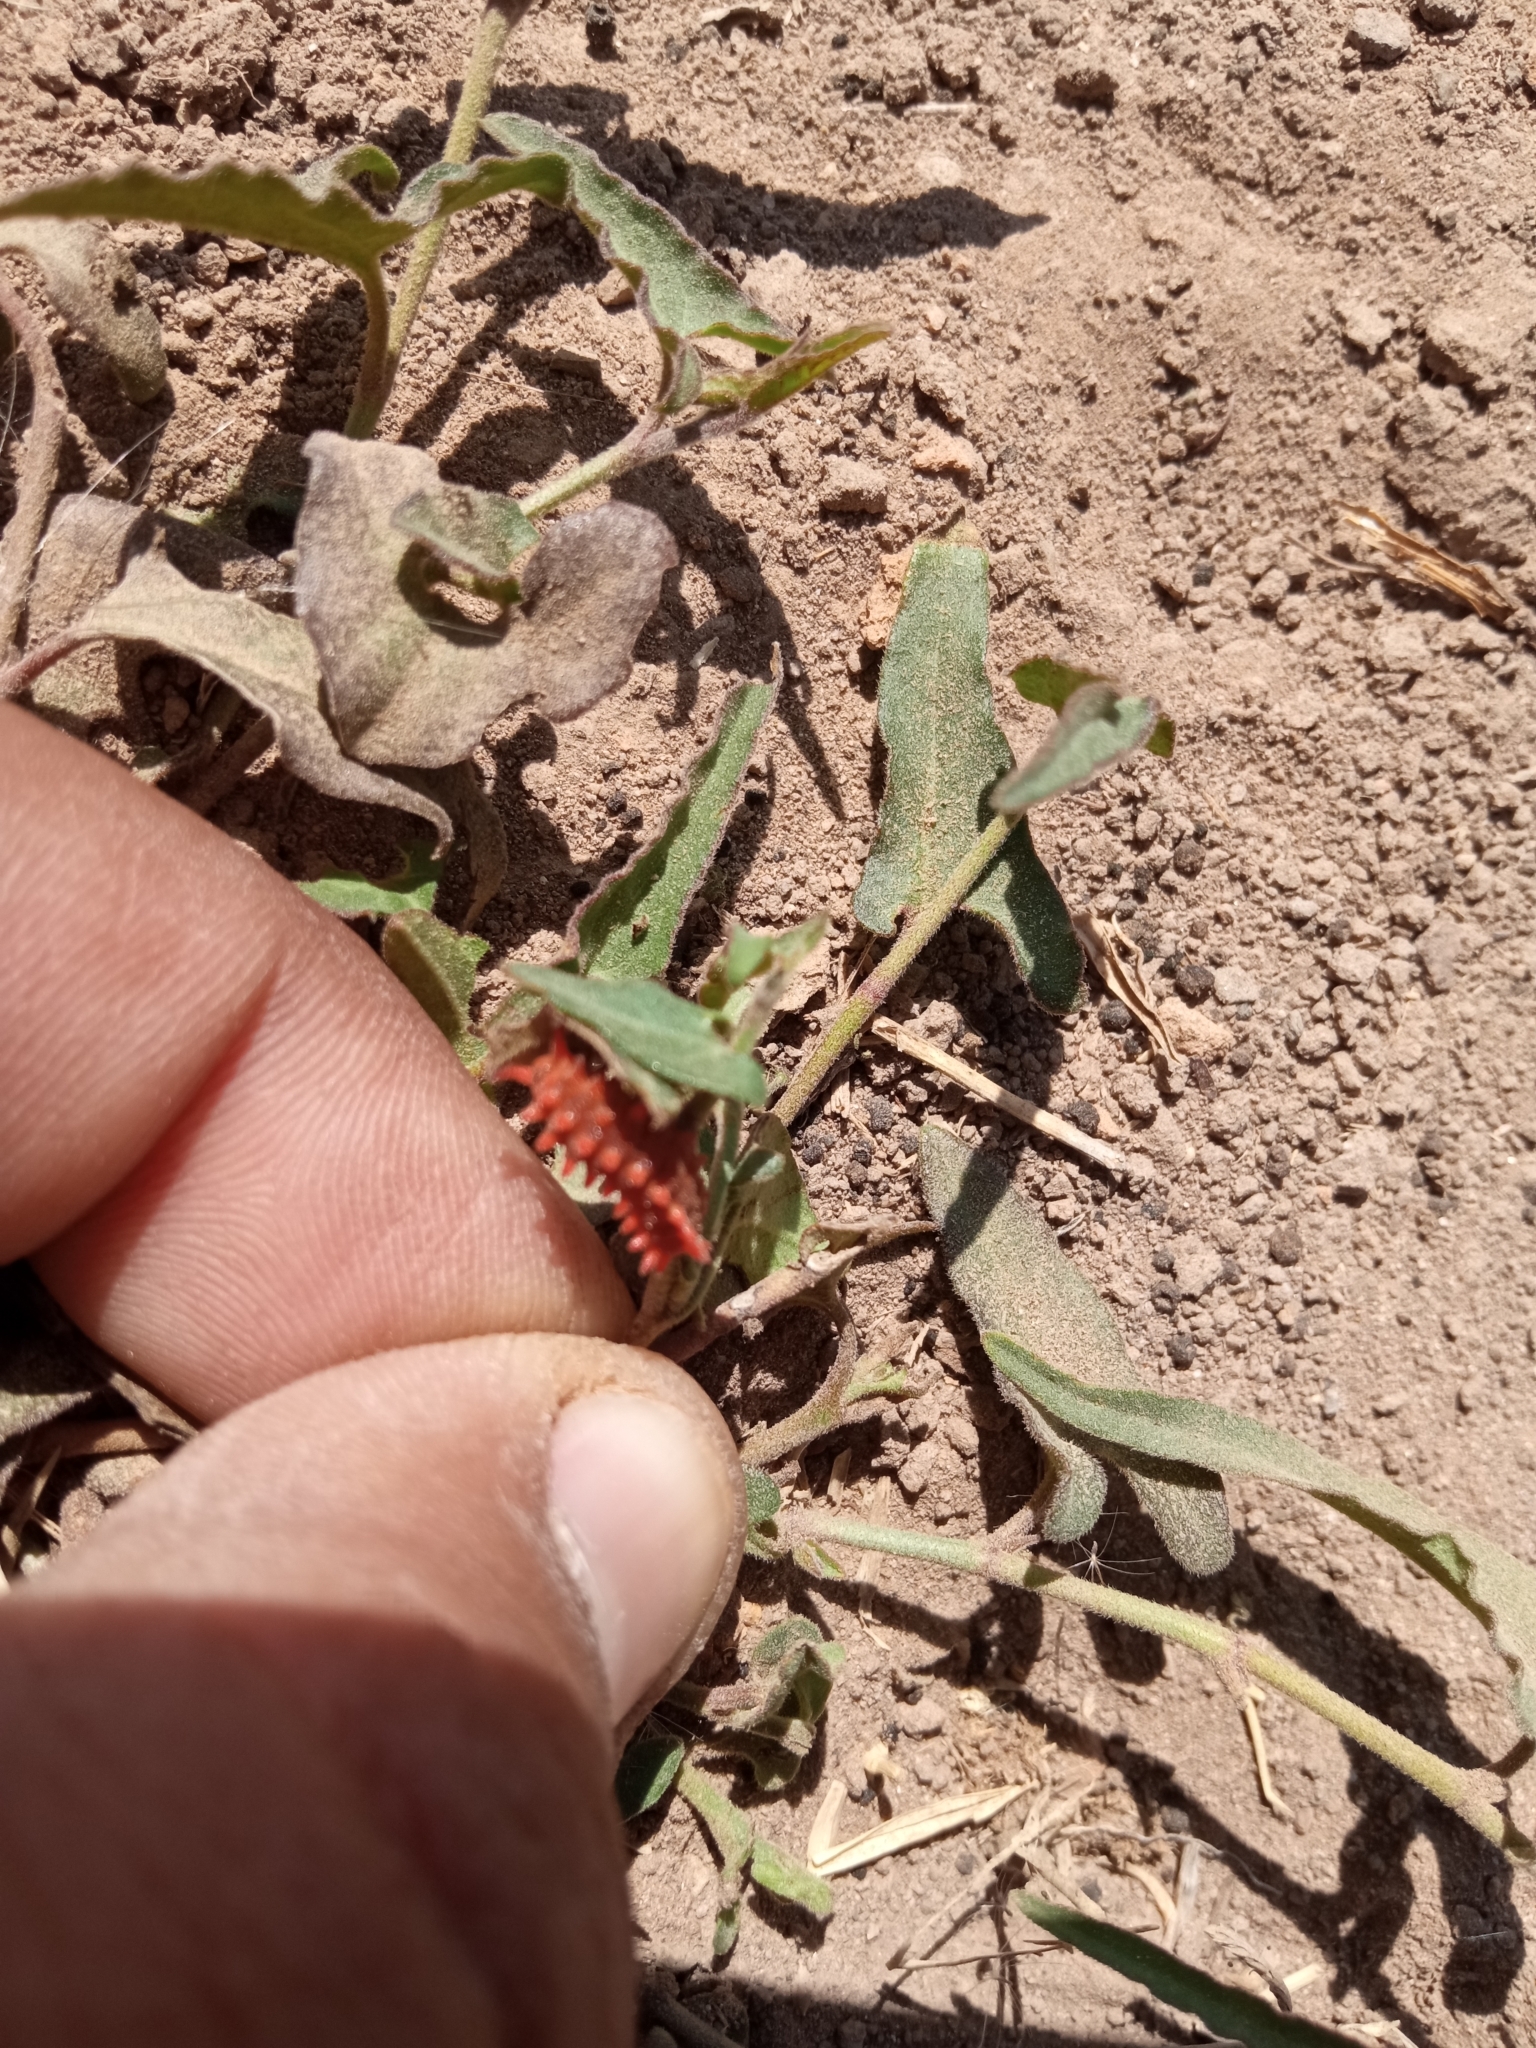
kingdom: Animalia
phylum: Arthropoda
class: Insecta
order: Lepidoptera
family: Papilionidae
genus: Battus
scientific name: Battus philenor
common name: Pipevine swallowtail
